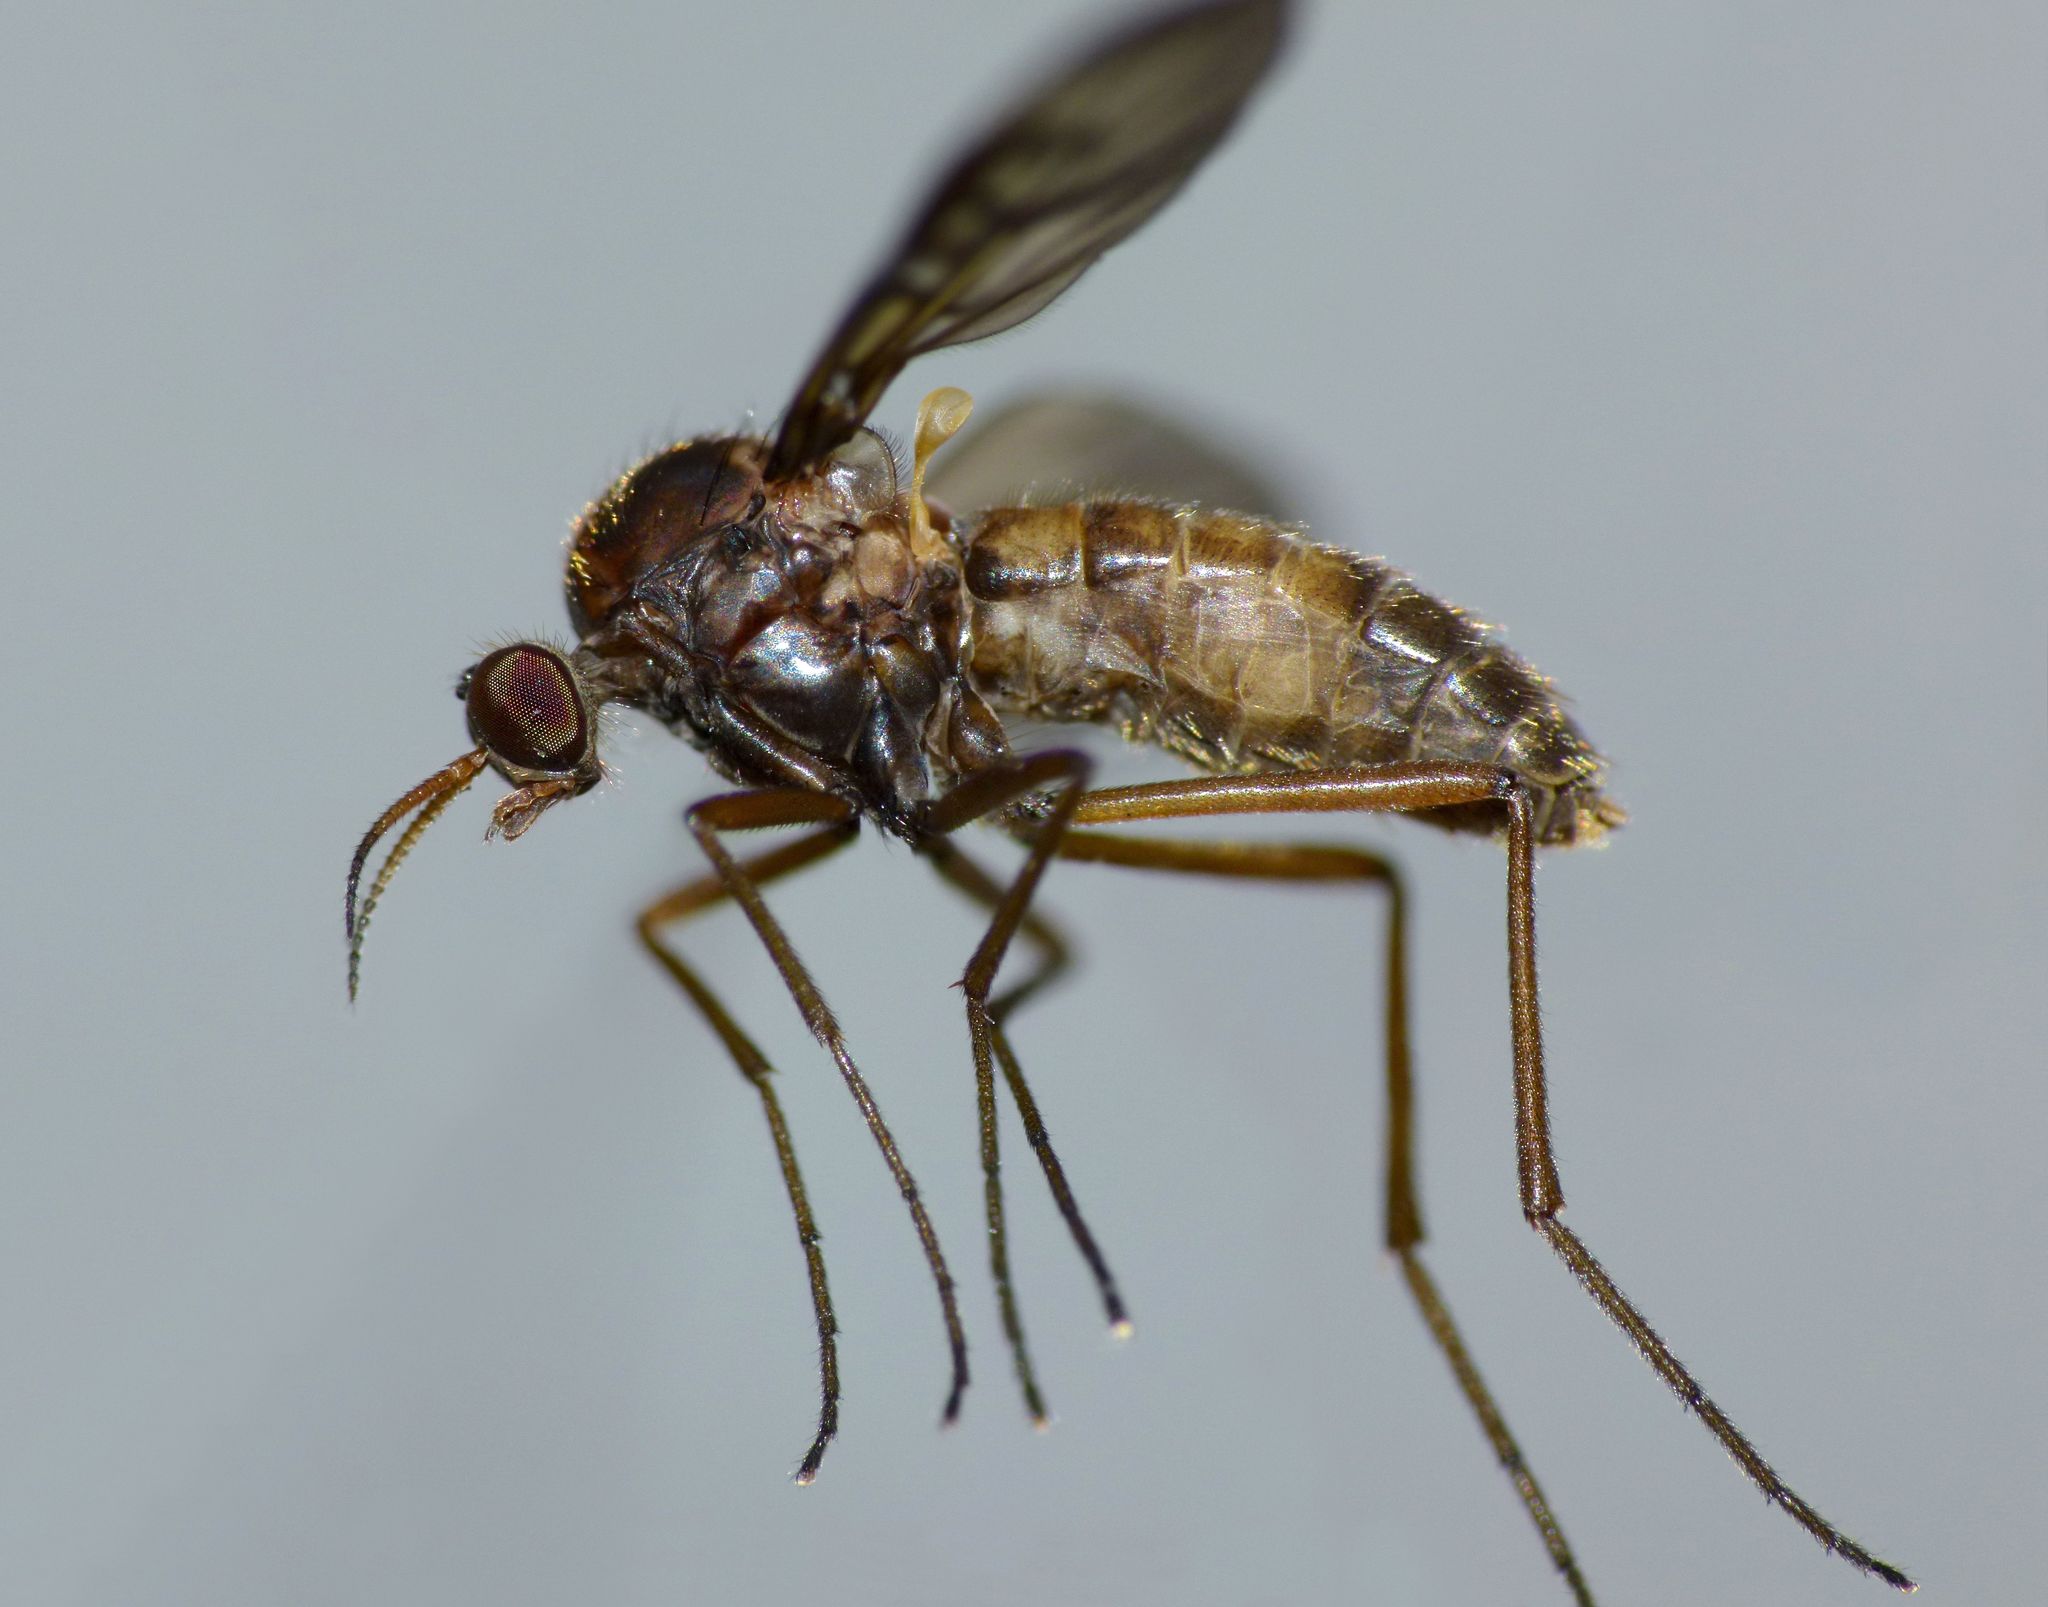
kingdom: Animalia
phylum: Arthropoda
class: Insecta
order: Diptera
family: Anisopodidae
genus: Sylvicola
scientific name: Sylvicola neozelandicus
